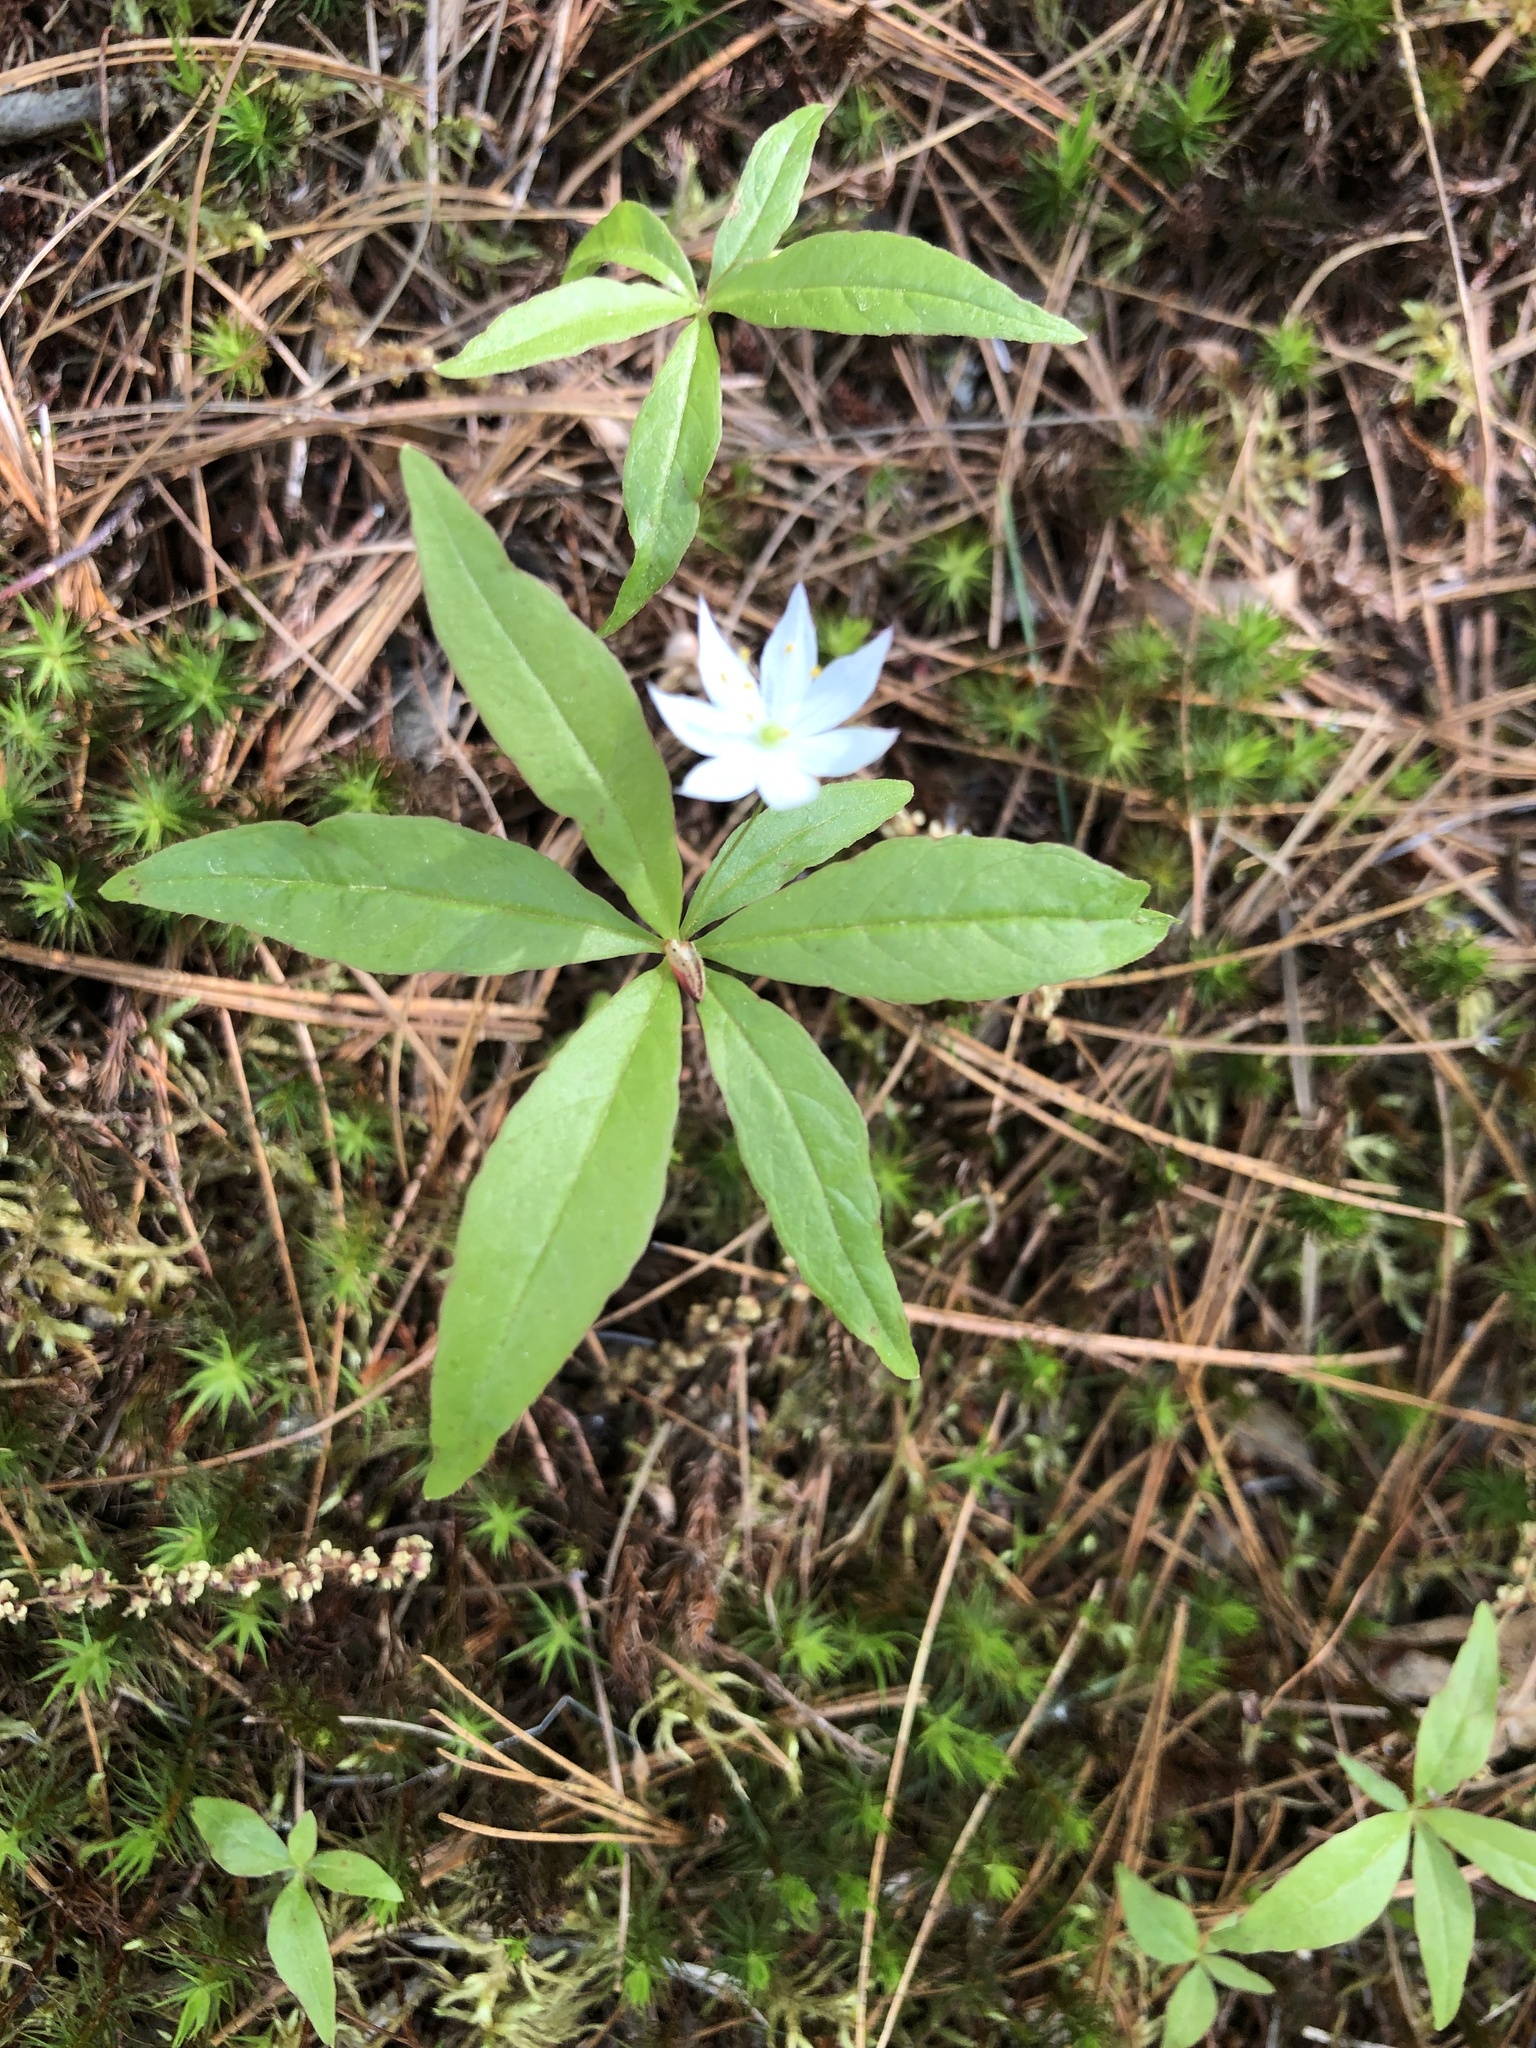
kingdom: Plantae
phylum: Tracheophyta
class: Magnoliopsida
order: Ericales
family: Primulaceae
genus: Lysimachia
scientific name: Lysimachia borealis
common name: American starflower
